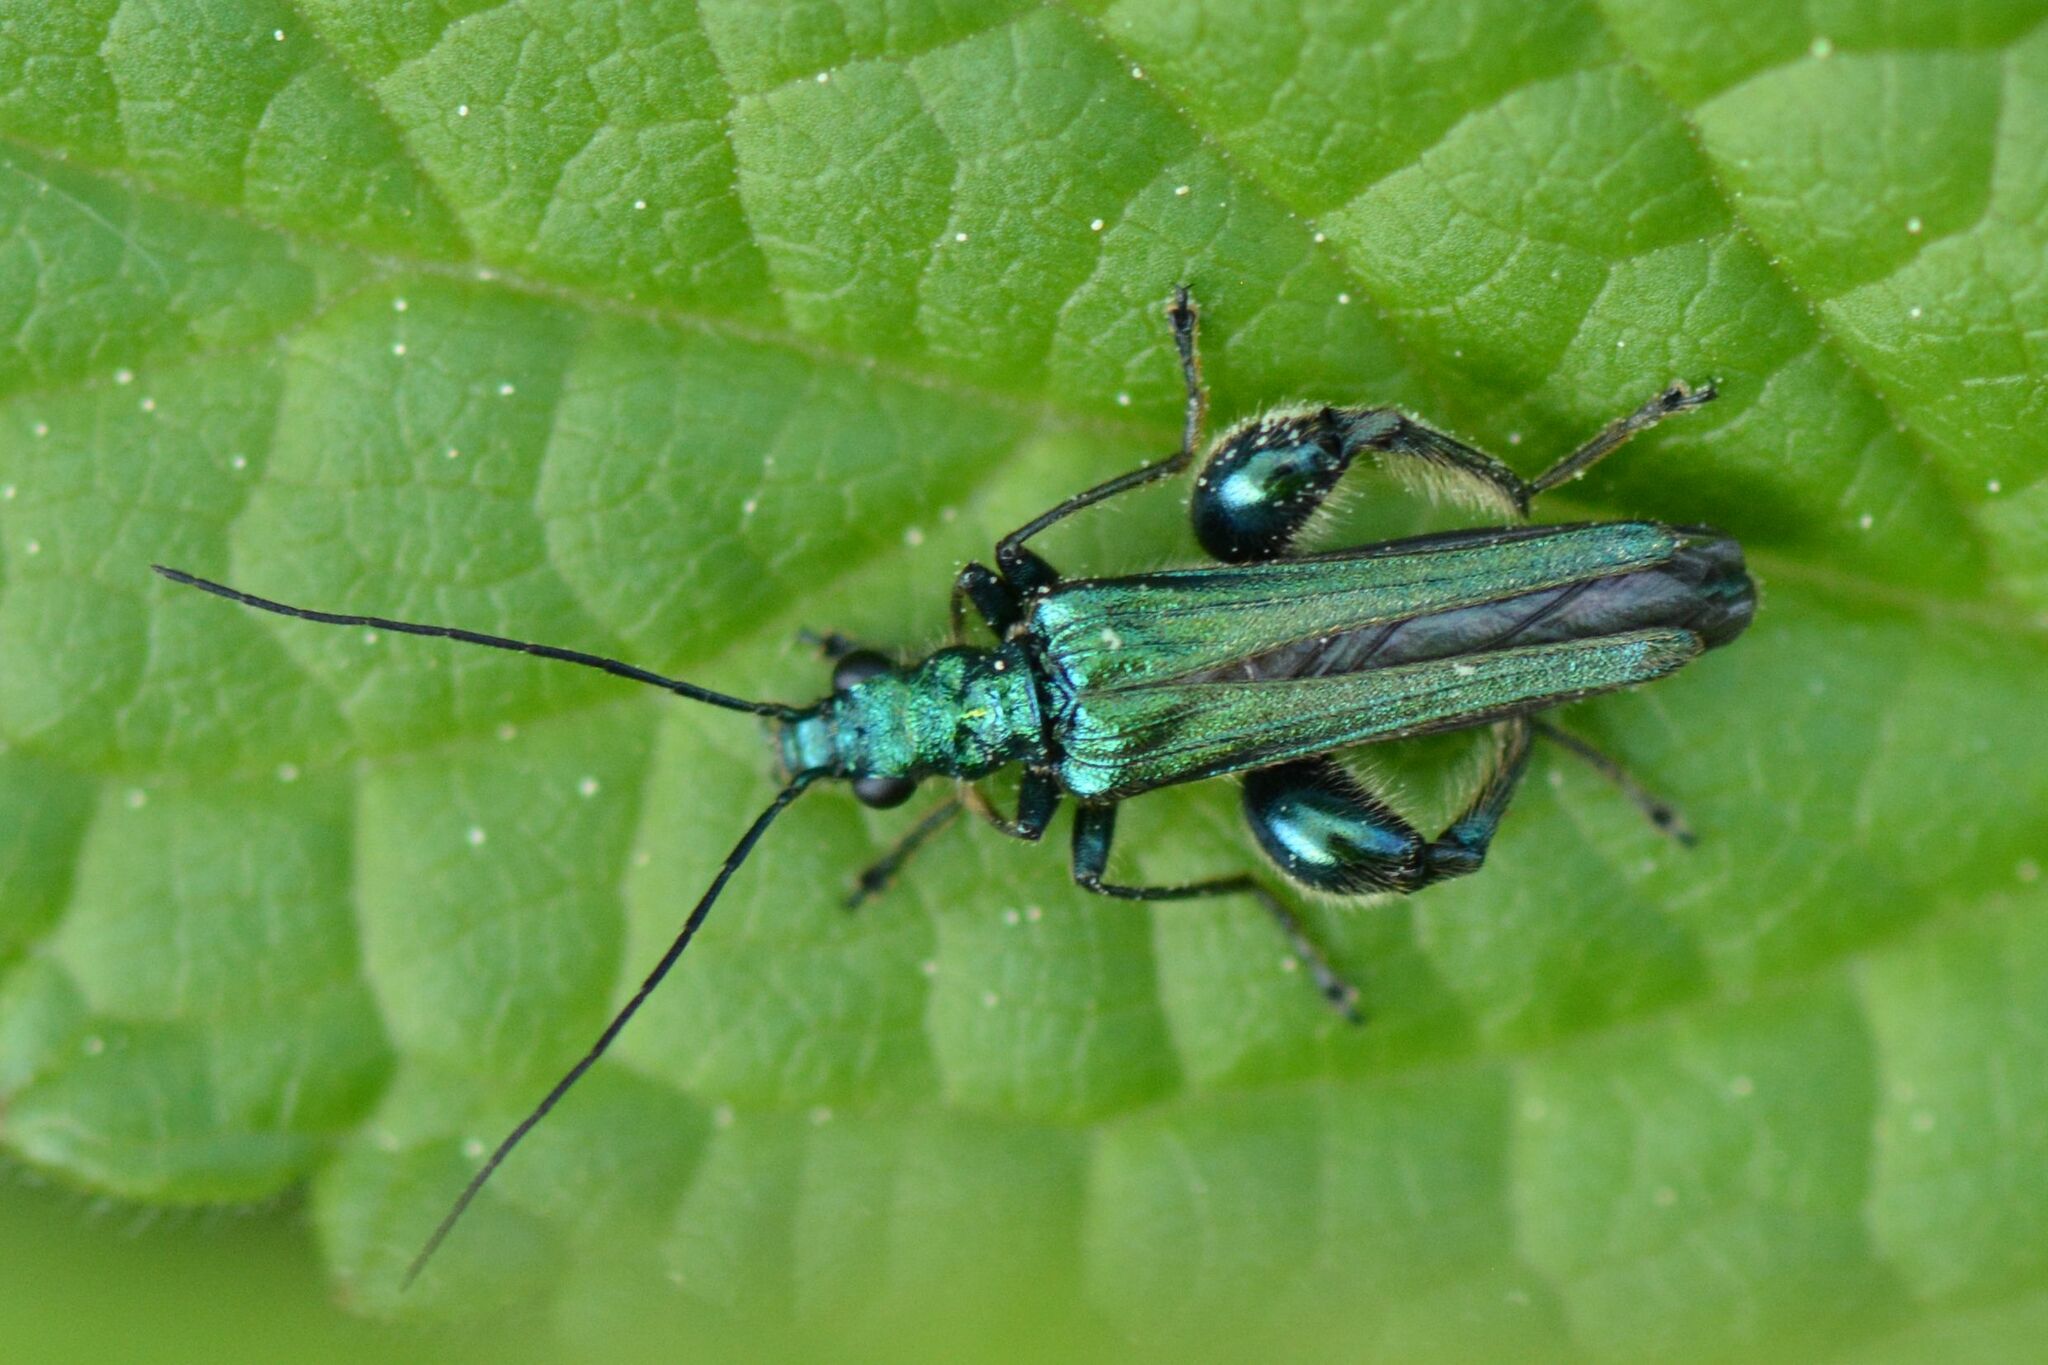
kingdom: Animalia
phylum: Arthropoda
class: Insecta
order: Coleoptera
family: Oedemeridae
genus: Oedemera
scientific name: Oedemera nobilis
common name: Swollen-thighed beetle
